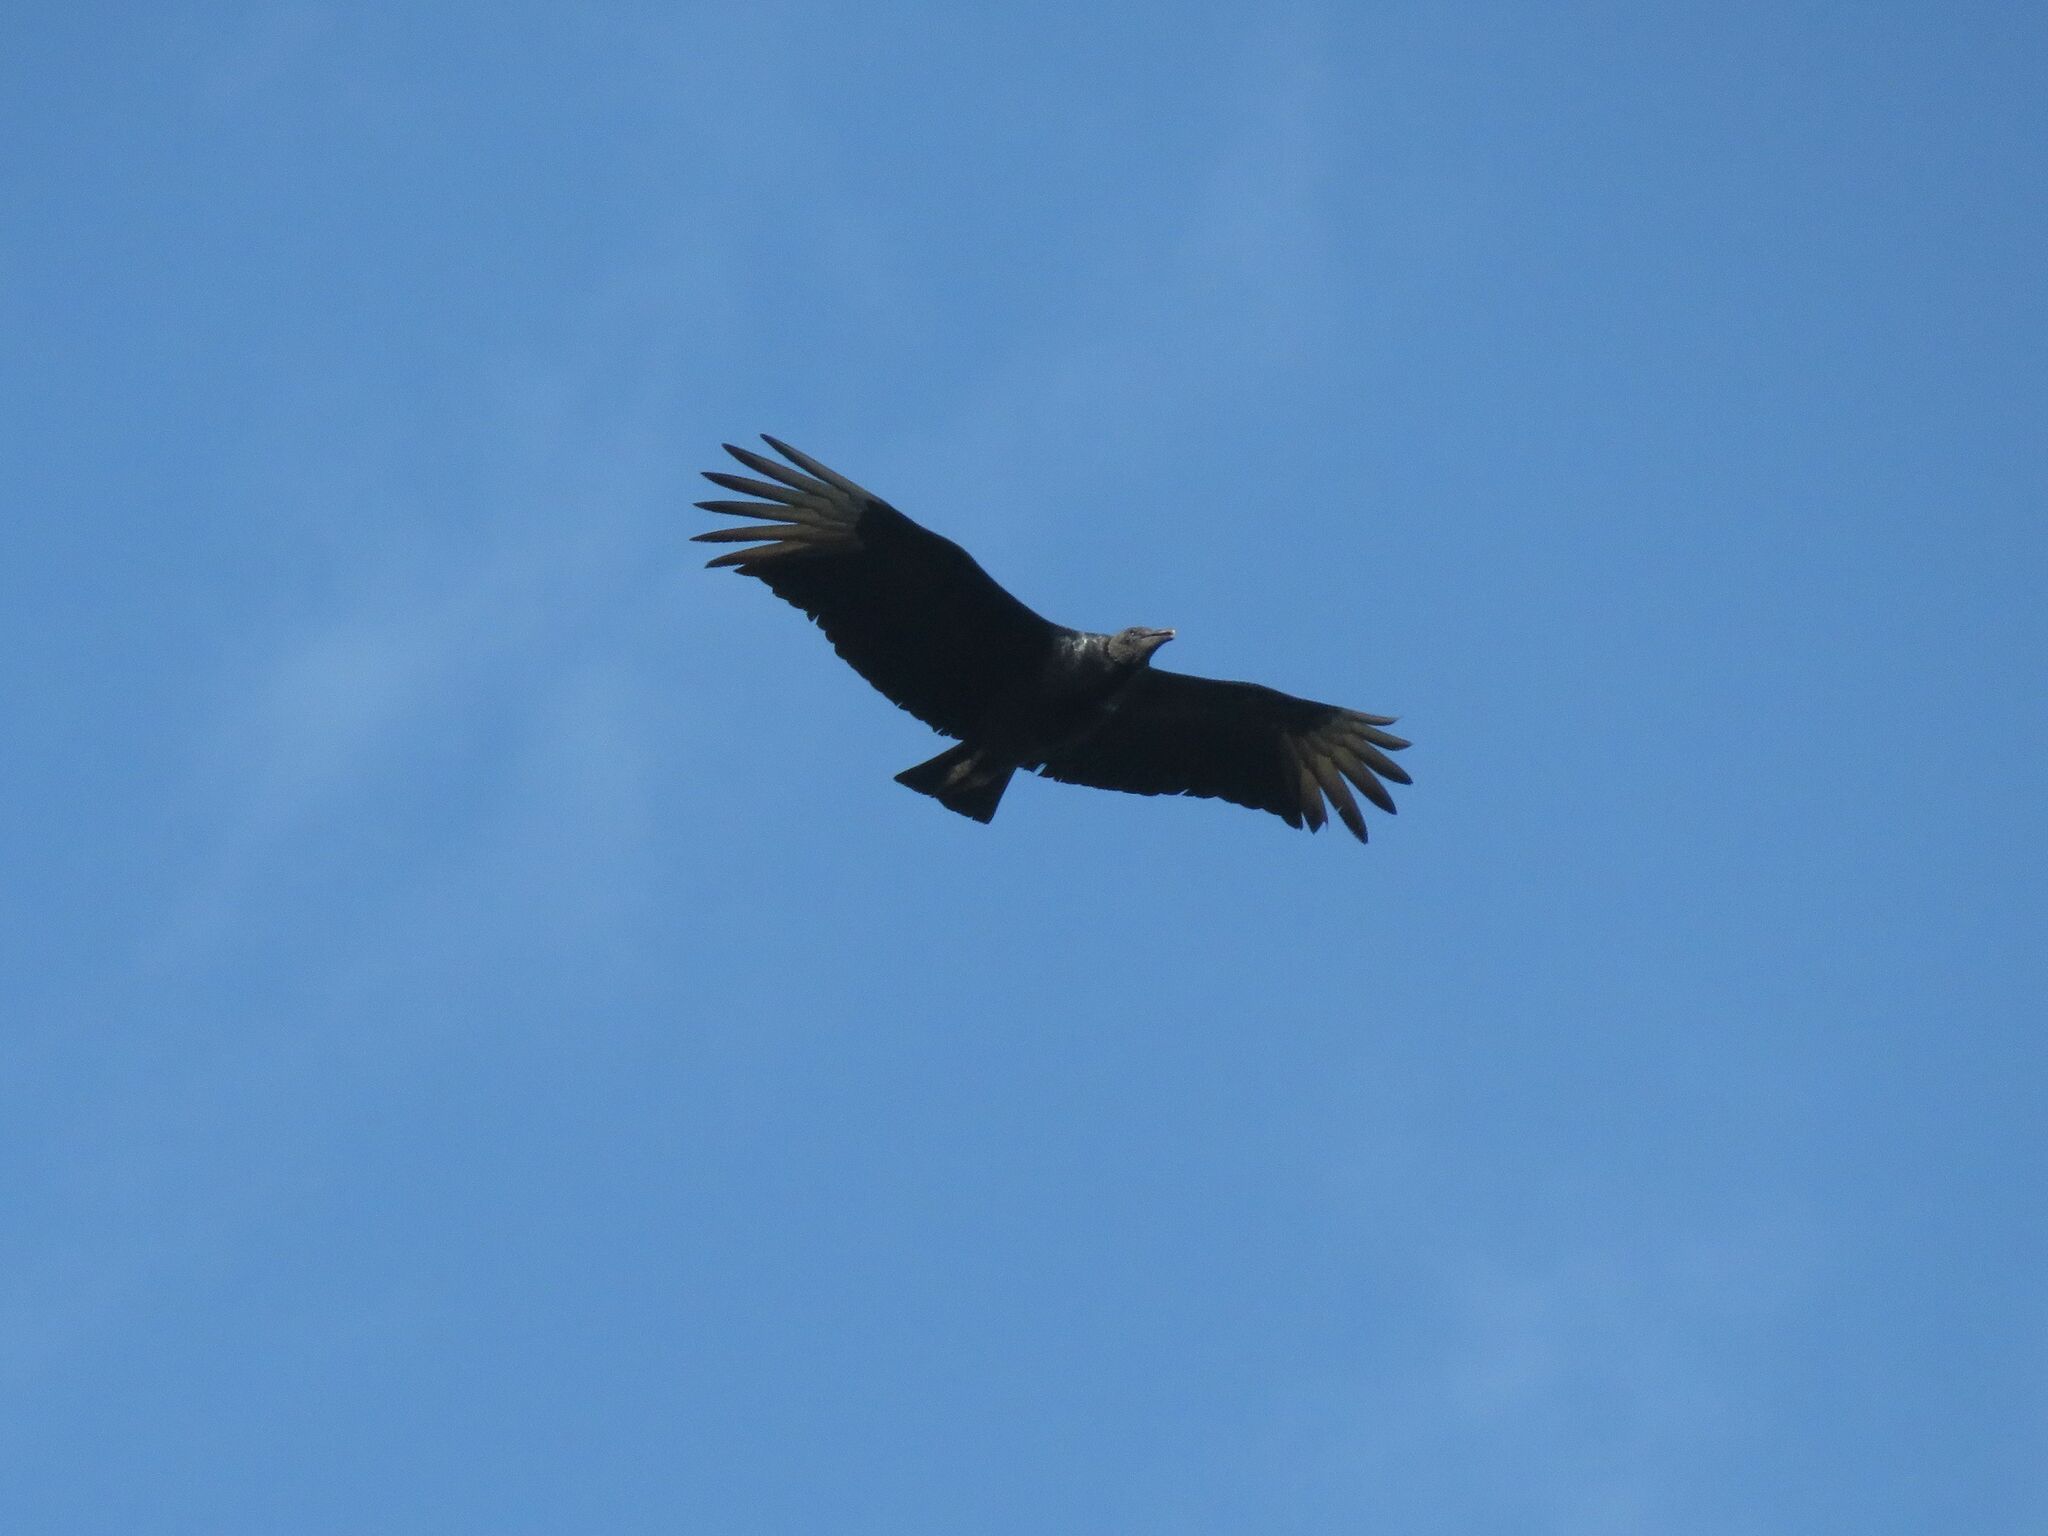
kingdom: Animalia
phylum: Chordata
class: Aves
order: Accipitriformes
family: Cathartidae
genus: Coragyps
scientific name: Coragyps atratus
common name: Black vulture
